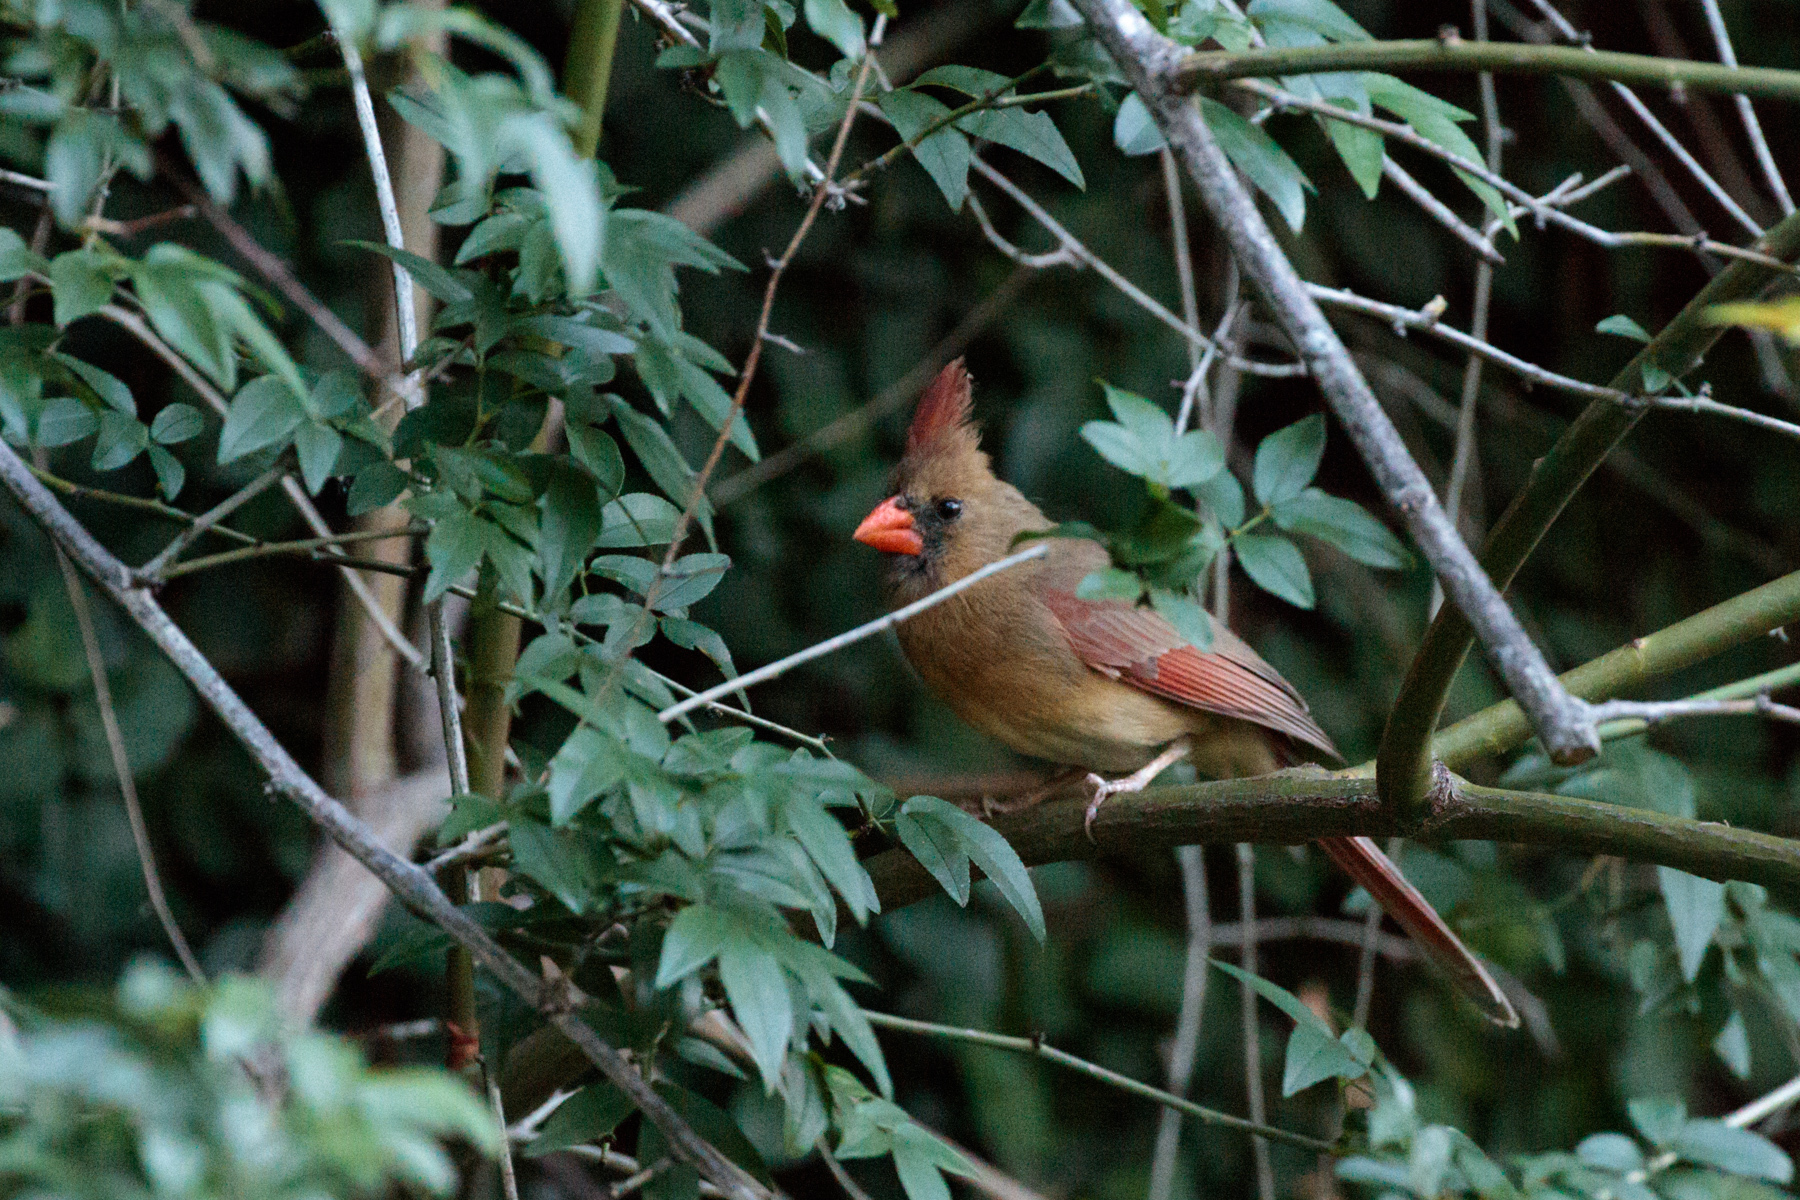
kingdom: Animalia
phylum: Chordata
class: Aves
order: Passeriformes
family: Cardinalidae
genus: Cardinalis
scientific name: Cardinalis cardinalis
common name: Northern cardinal
